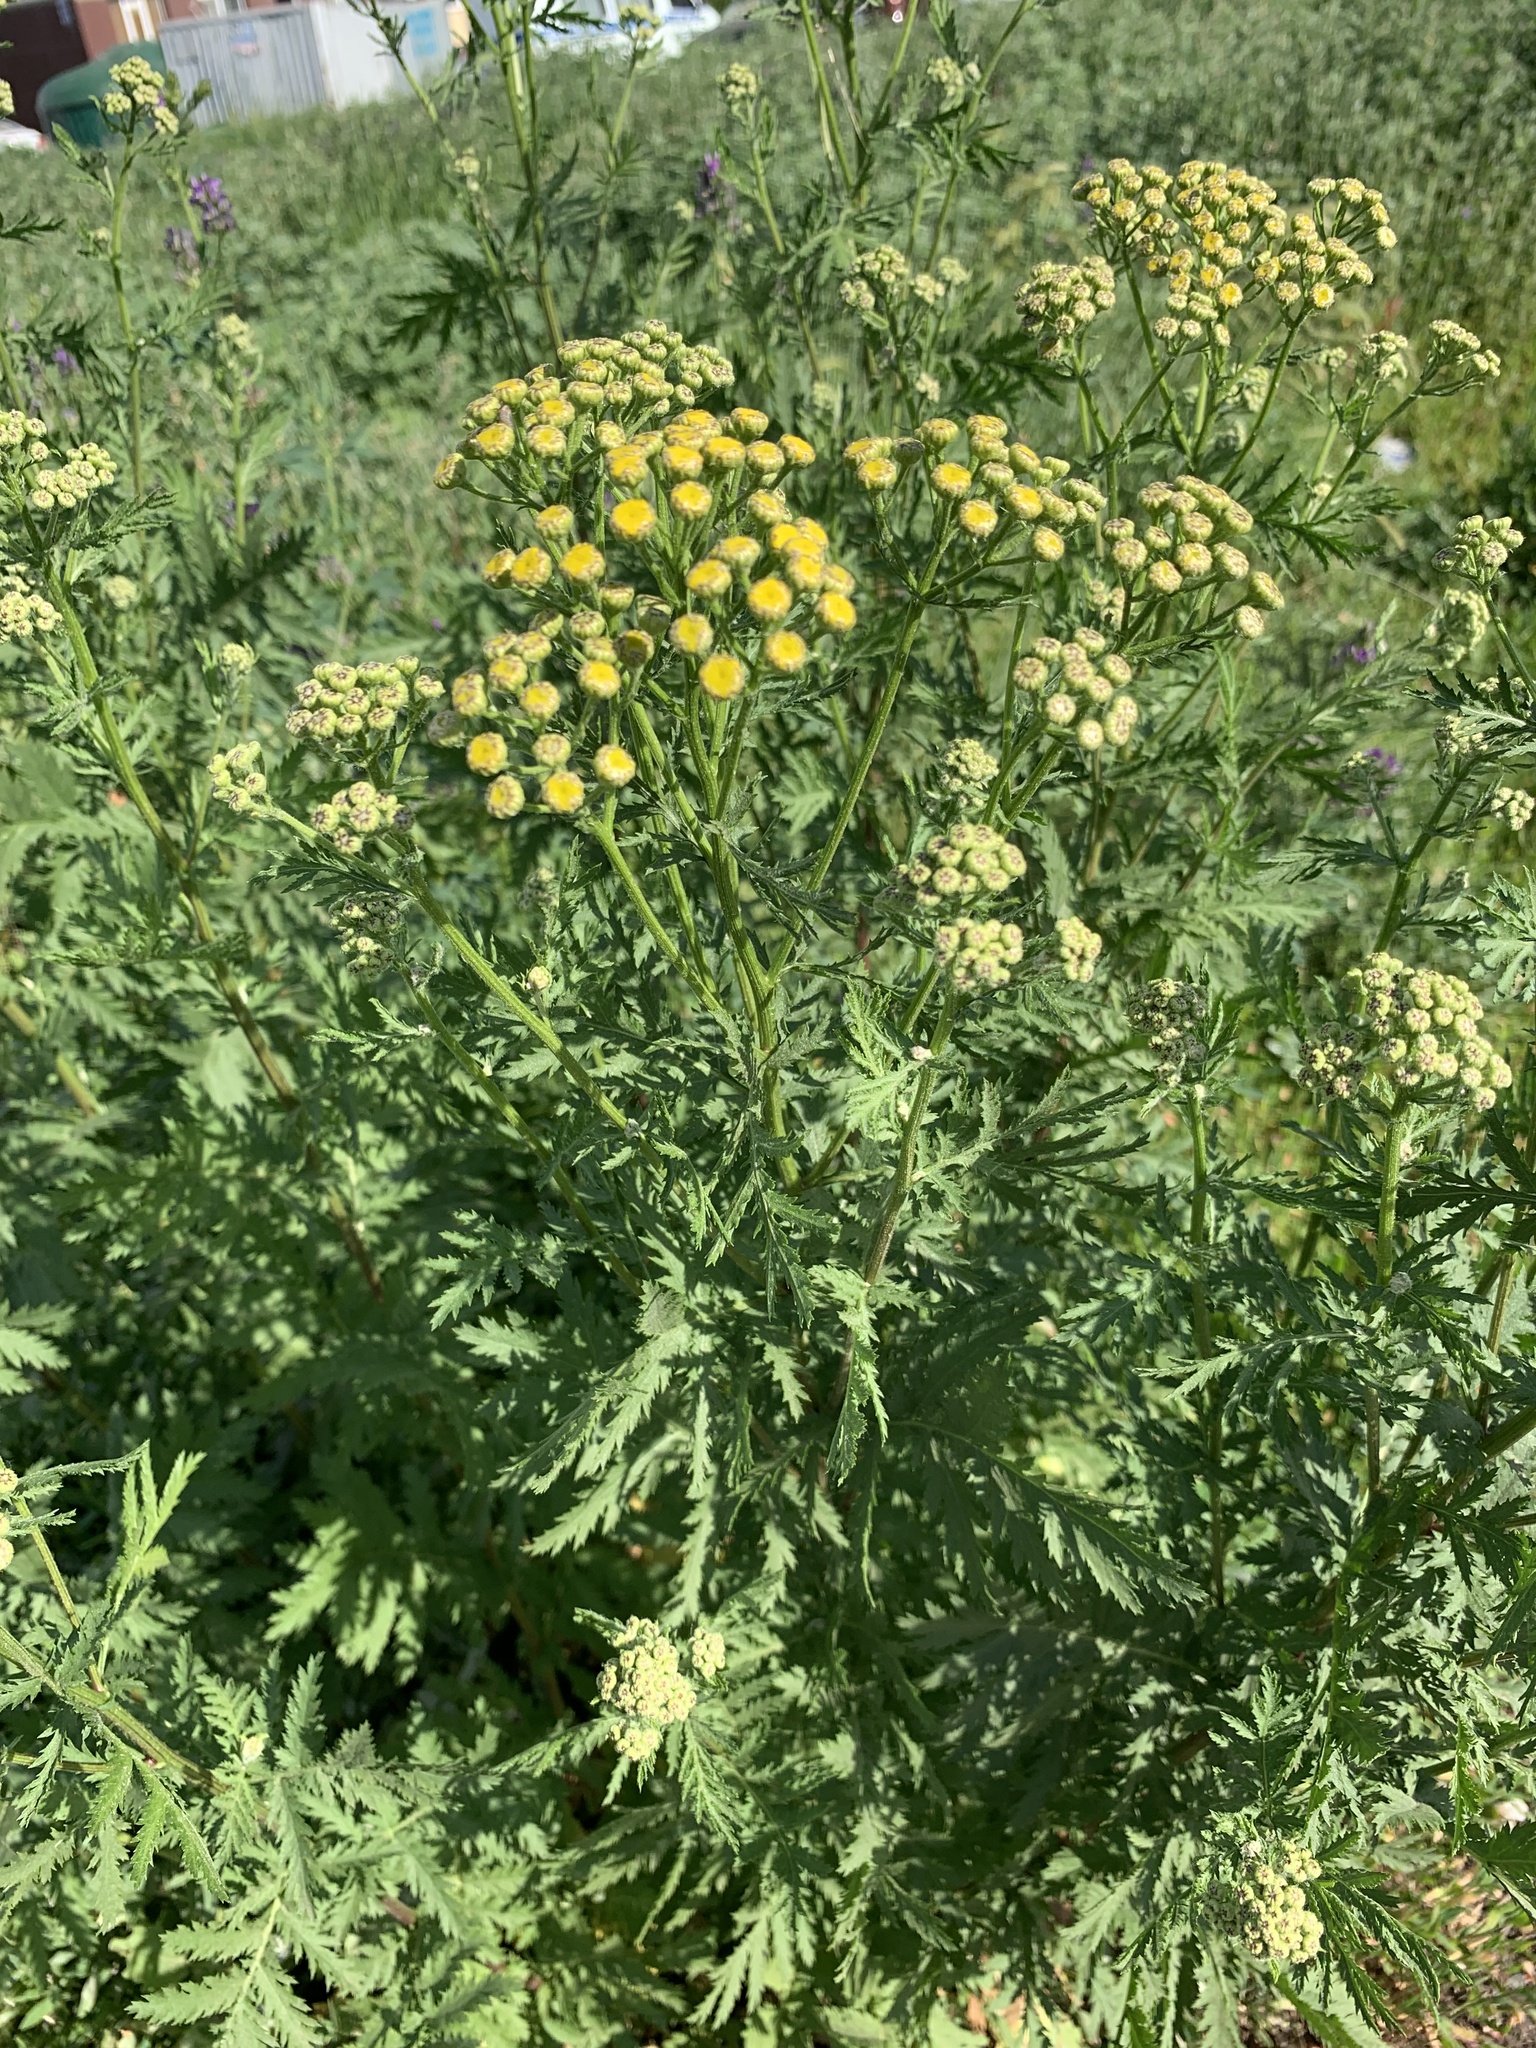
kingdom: Plantae
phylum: Tracheophyta
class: Magnoliopsida
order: Asterales
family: Asteraceae
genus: Tanacetum
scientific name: Tanacetum vulgare
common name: Common tansy
